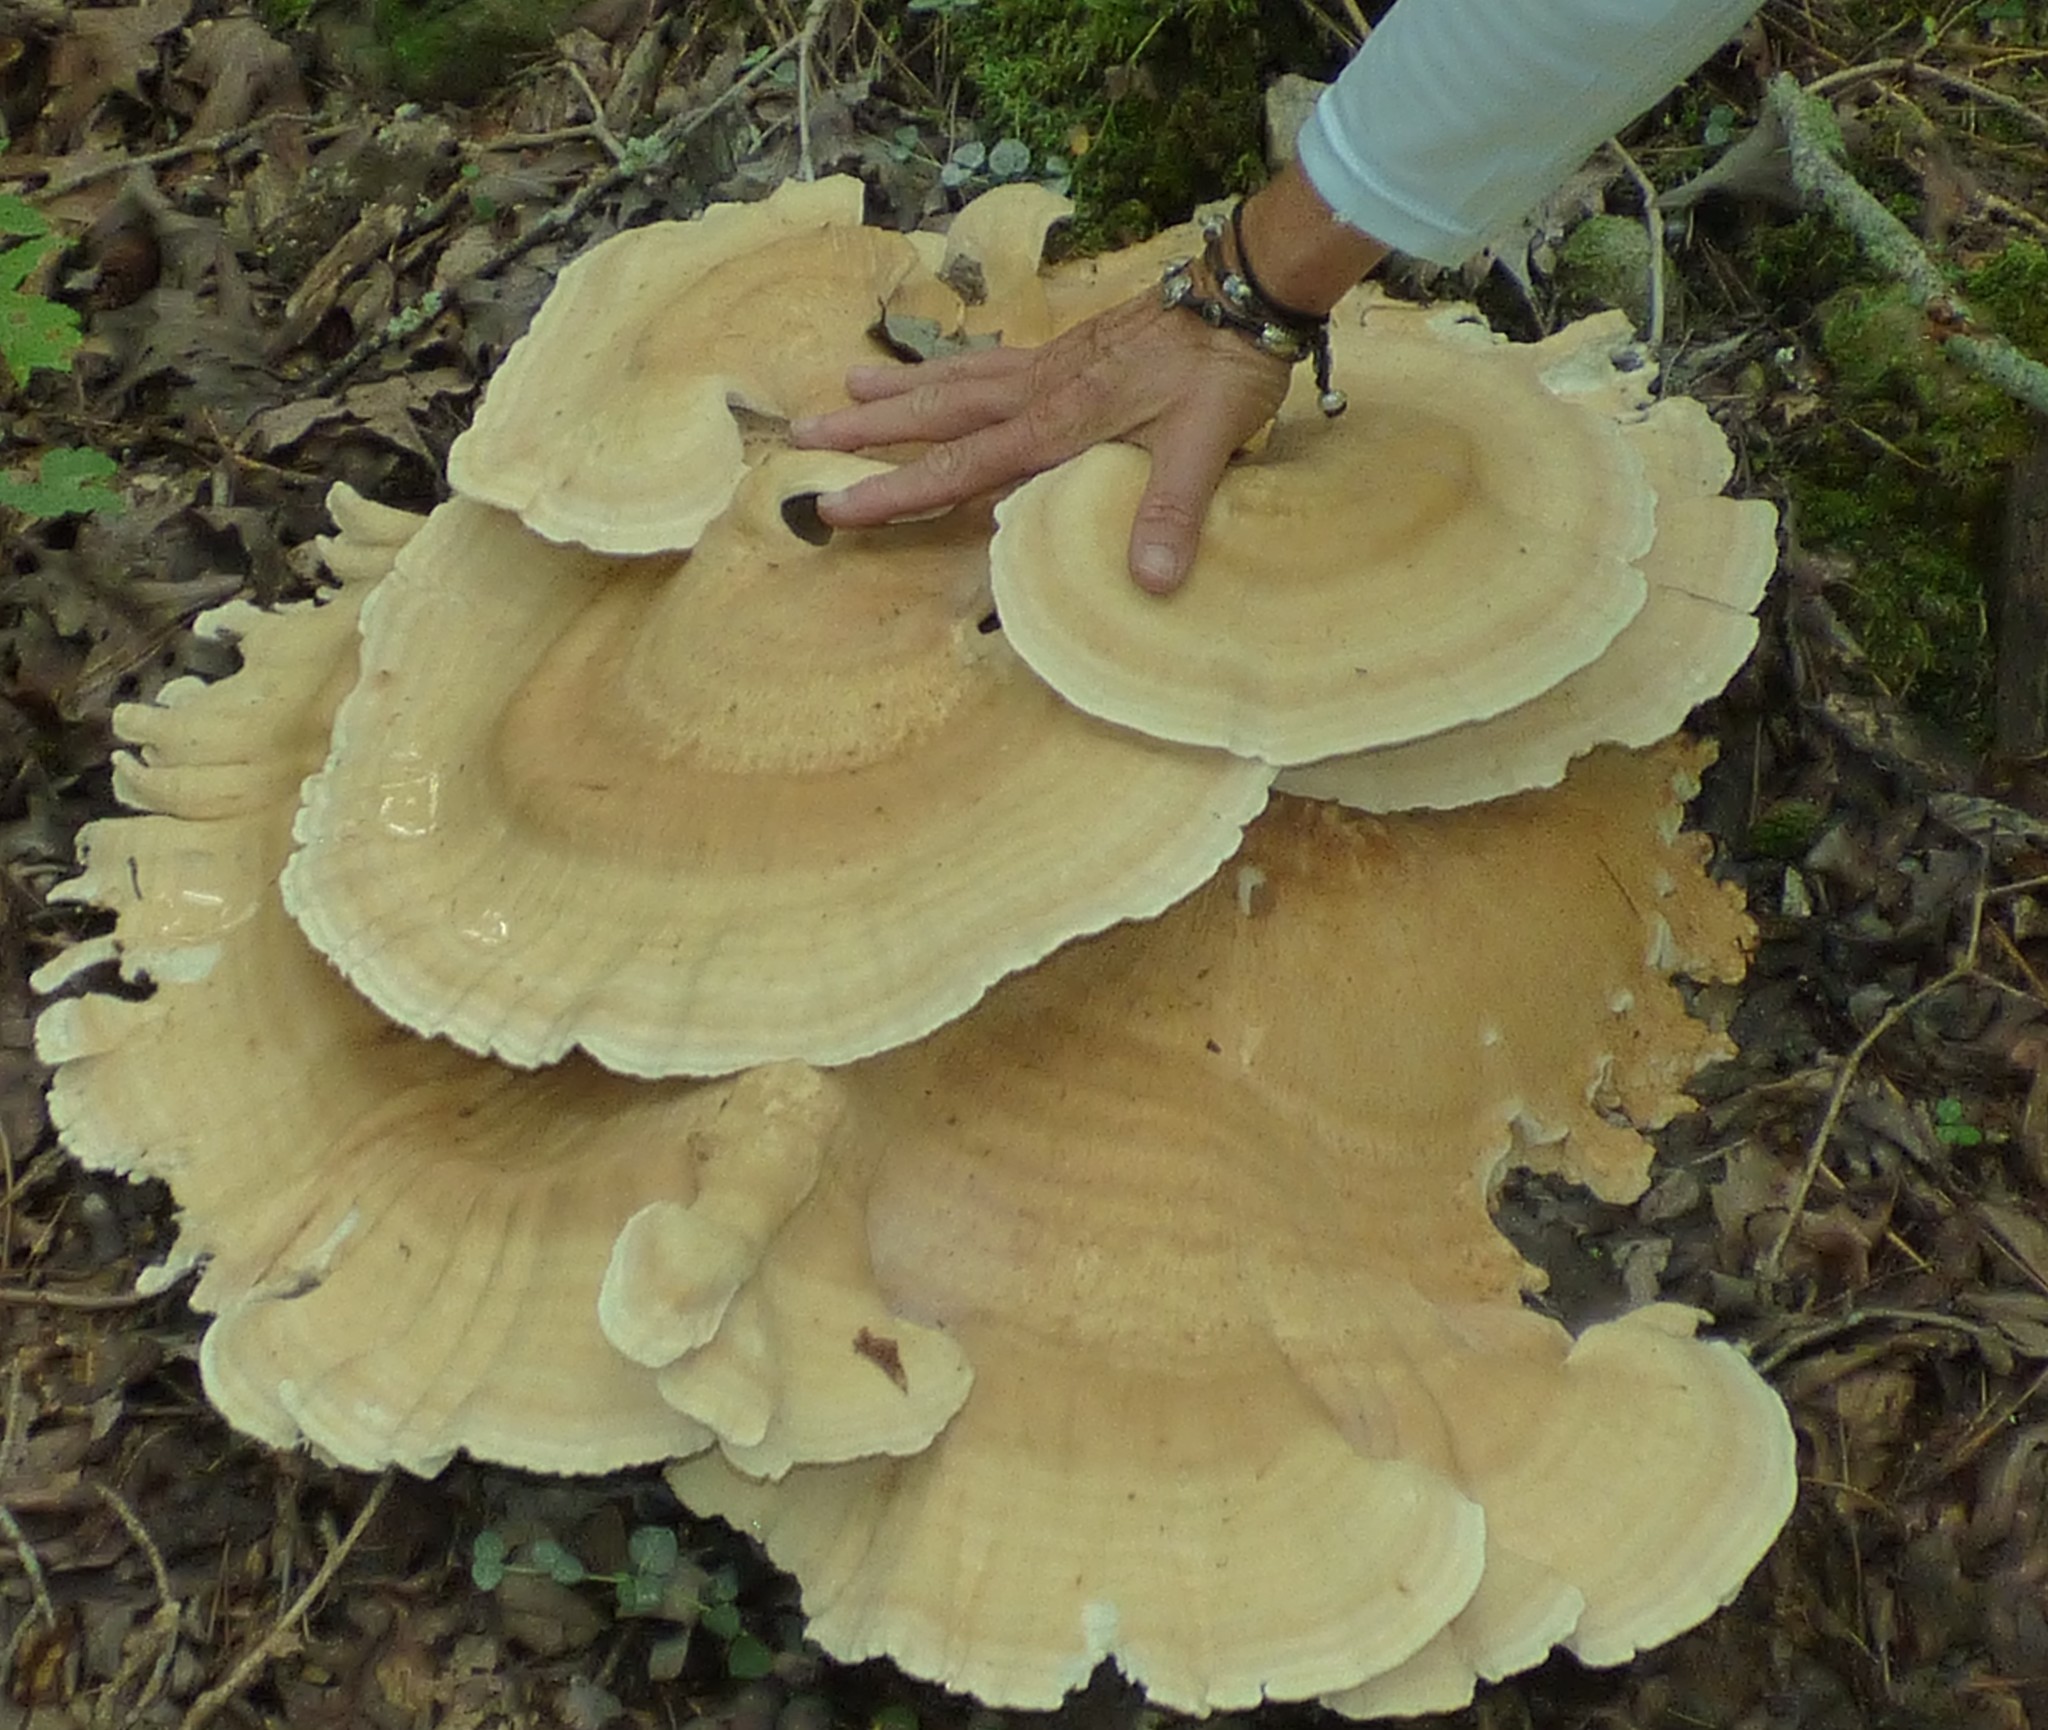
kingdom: Fungi
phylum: Basidiomycota
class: Agaricomycetes
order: Russulales
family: Bondarzewiaceae
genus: Bondarzewia
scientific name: Bondarzewia berkeleyi
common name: Berkeley's polypore
